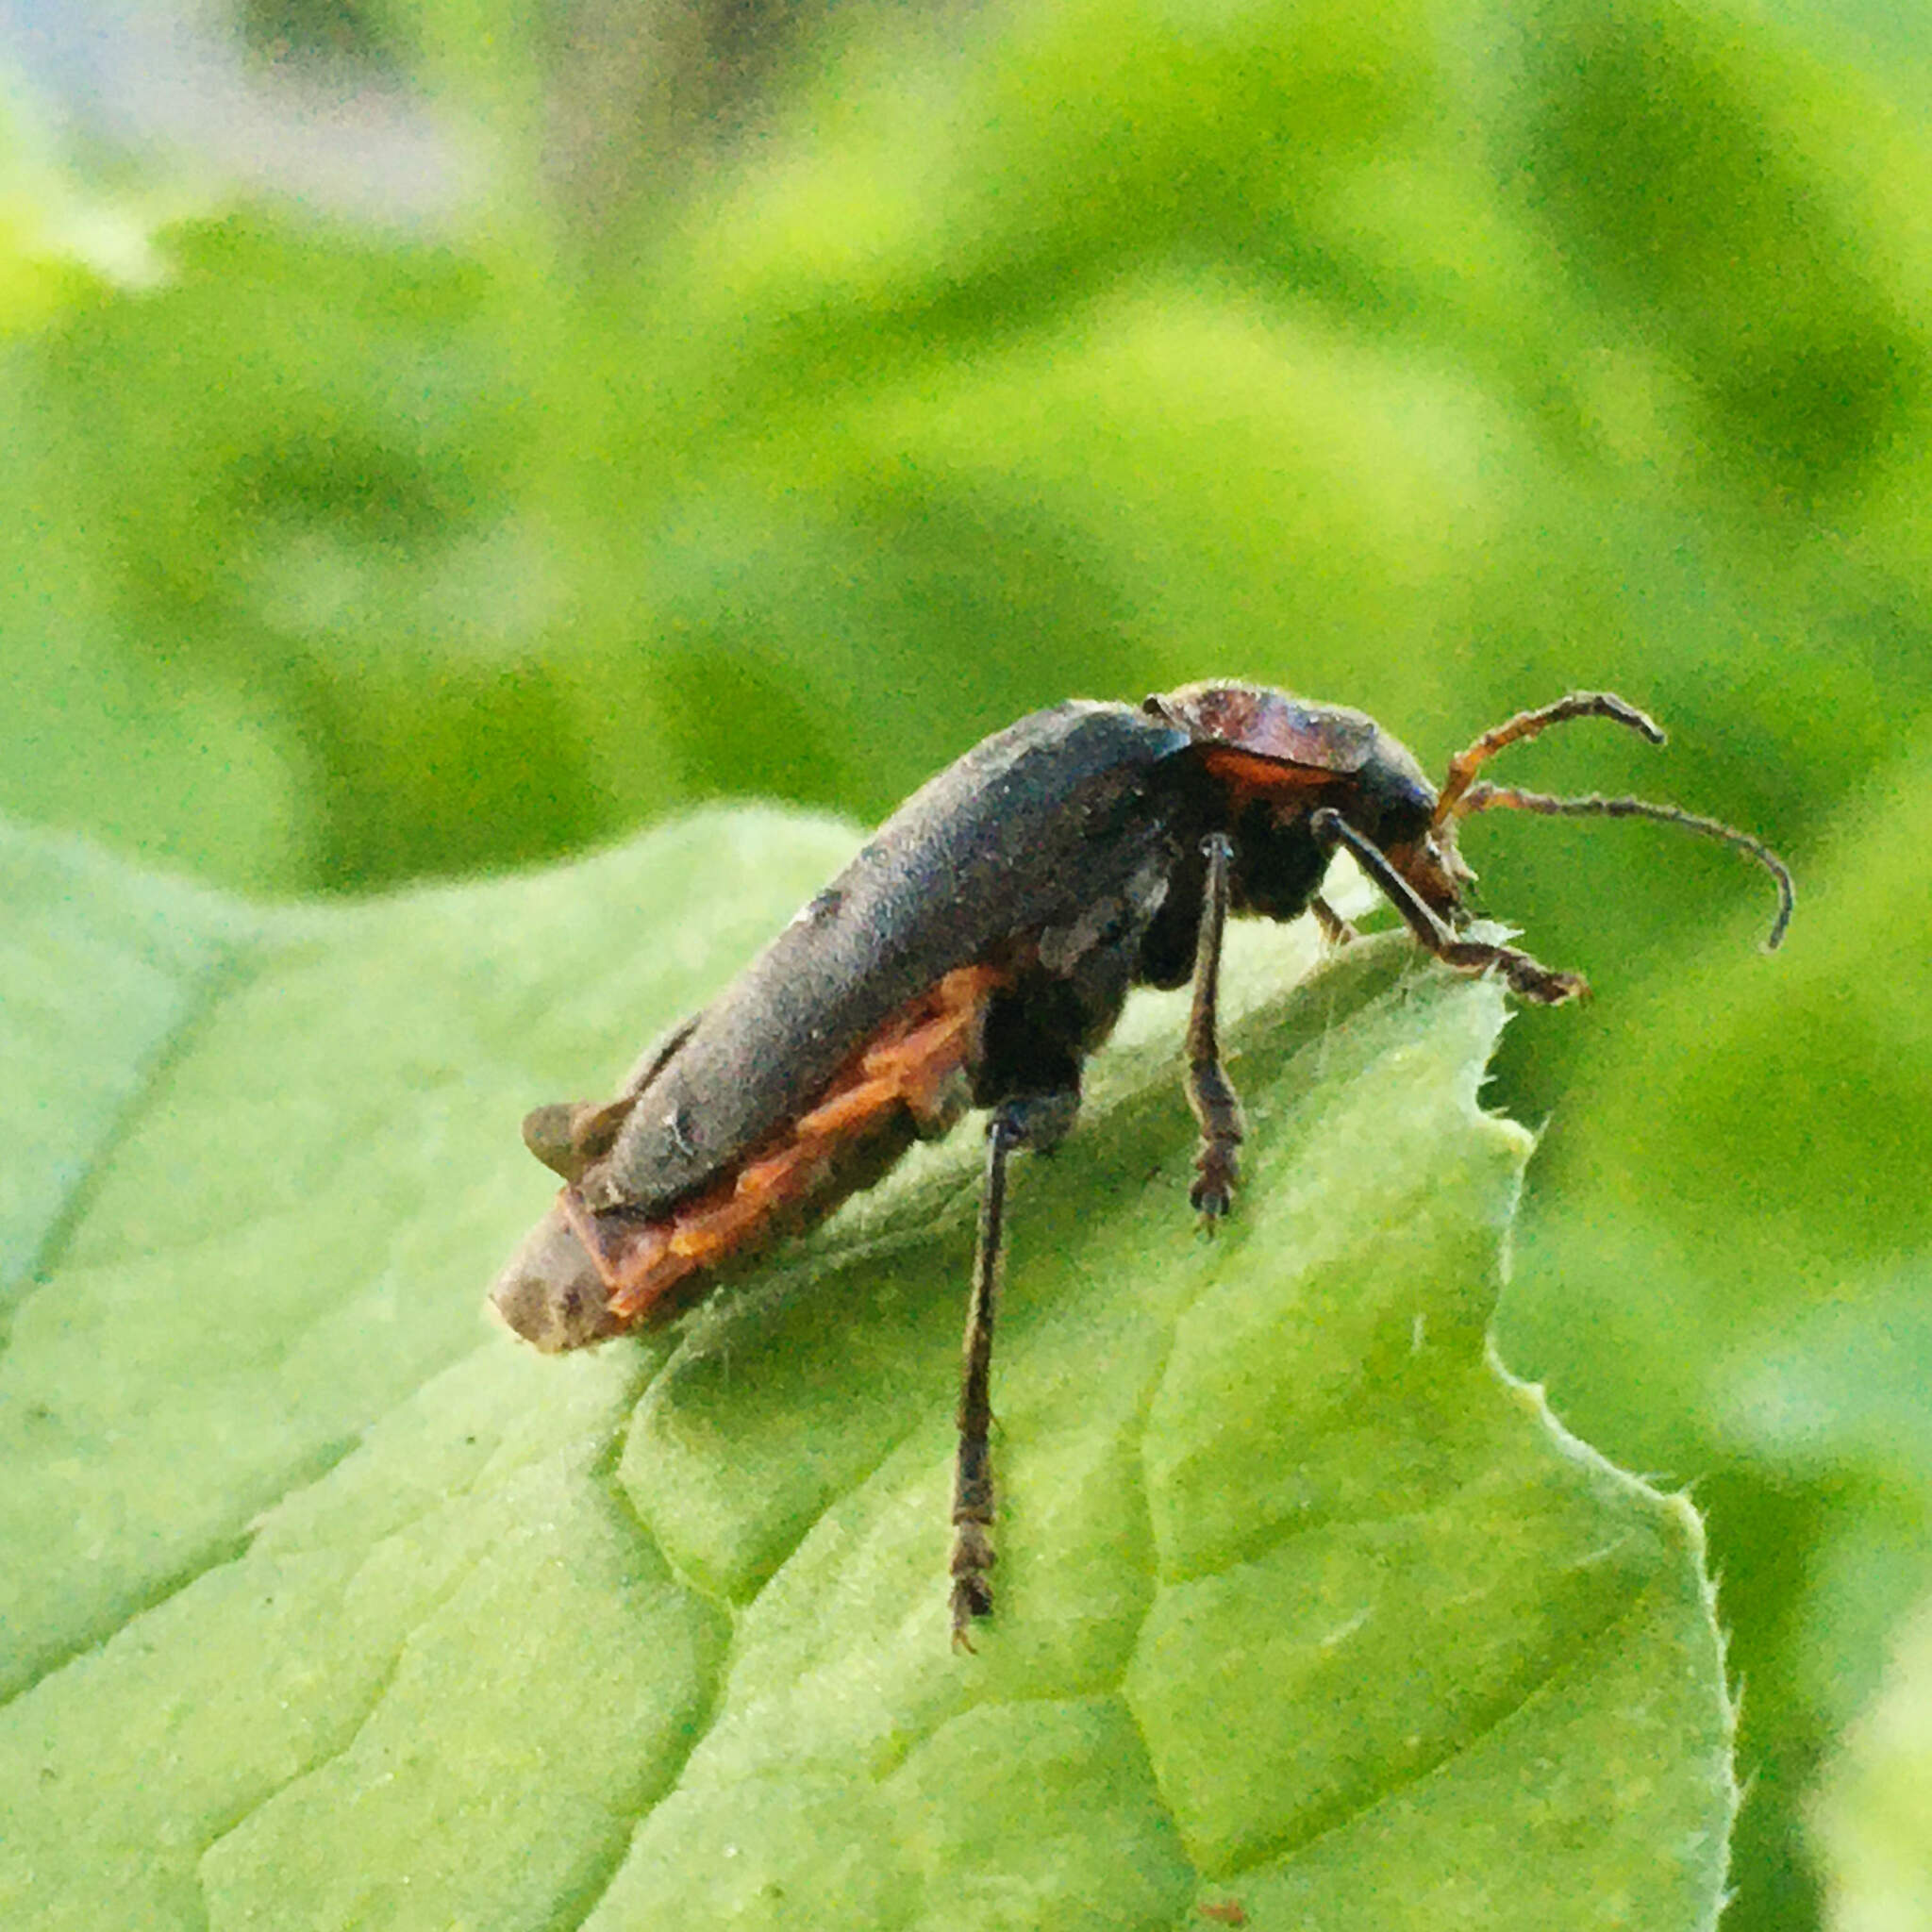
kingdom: Animalia
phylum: Arthropoda
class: Insecta
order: Coleoptera
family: Cantharidae
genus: Cantharis
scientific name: Cantharis fusca
